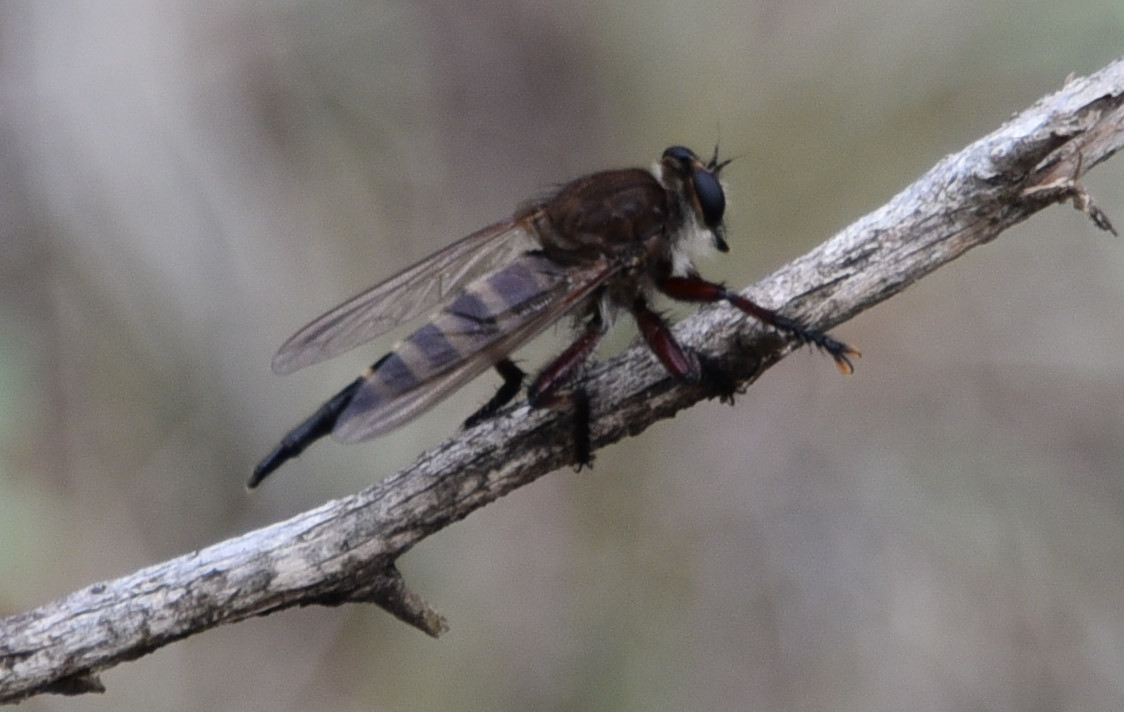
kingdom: Animalia
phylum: Arthropoda
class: Insecta
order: Diptera
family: Asilidae
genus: Promachus
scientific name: Promachus hinei
